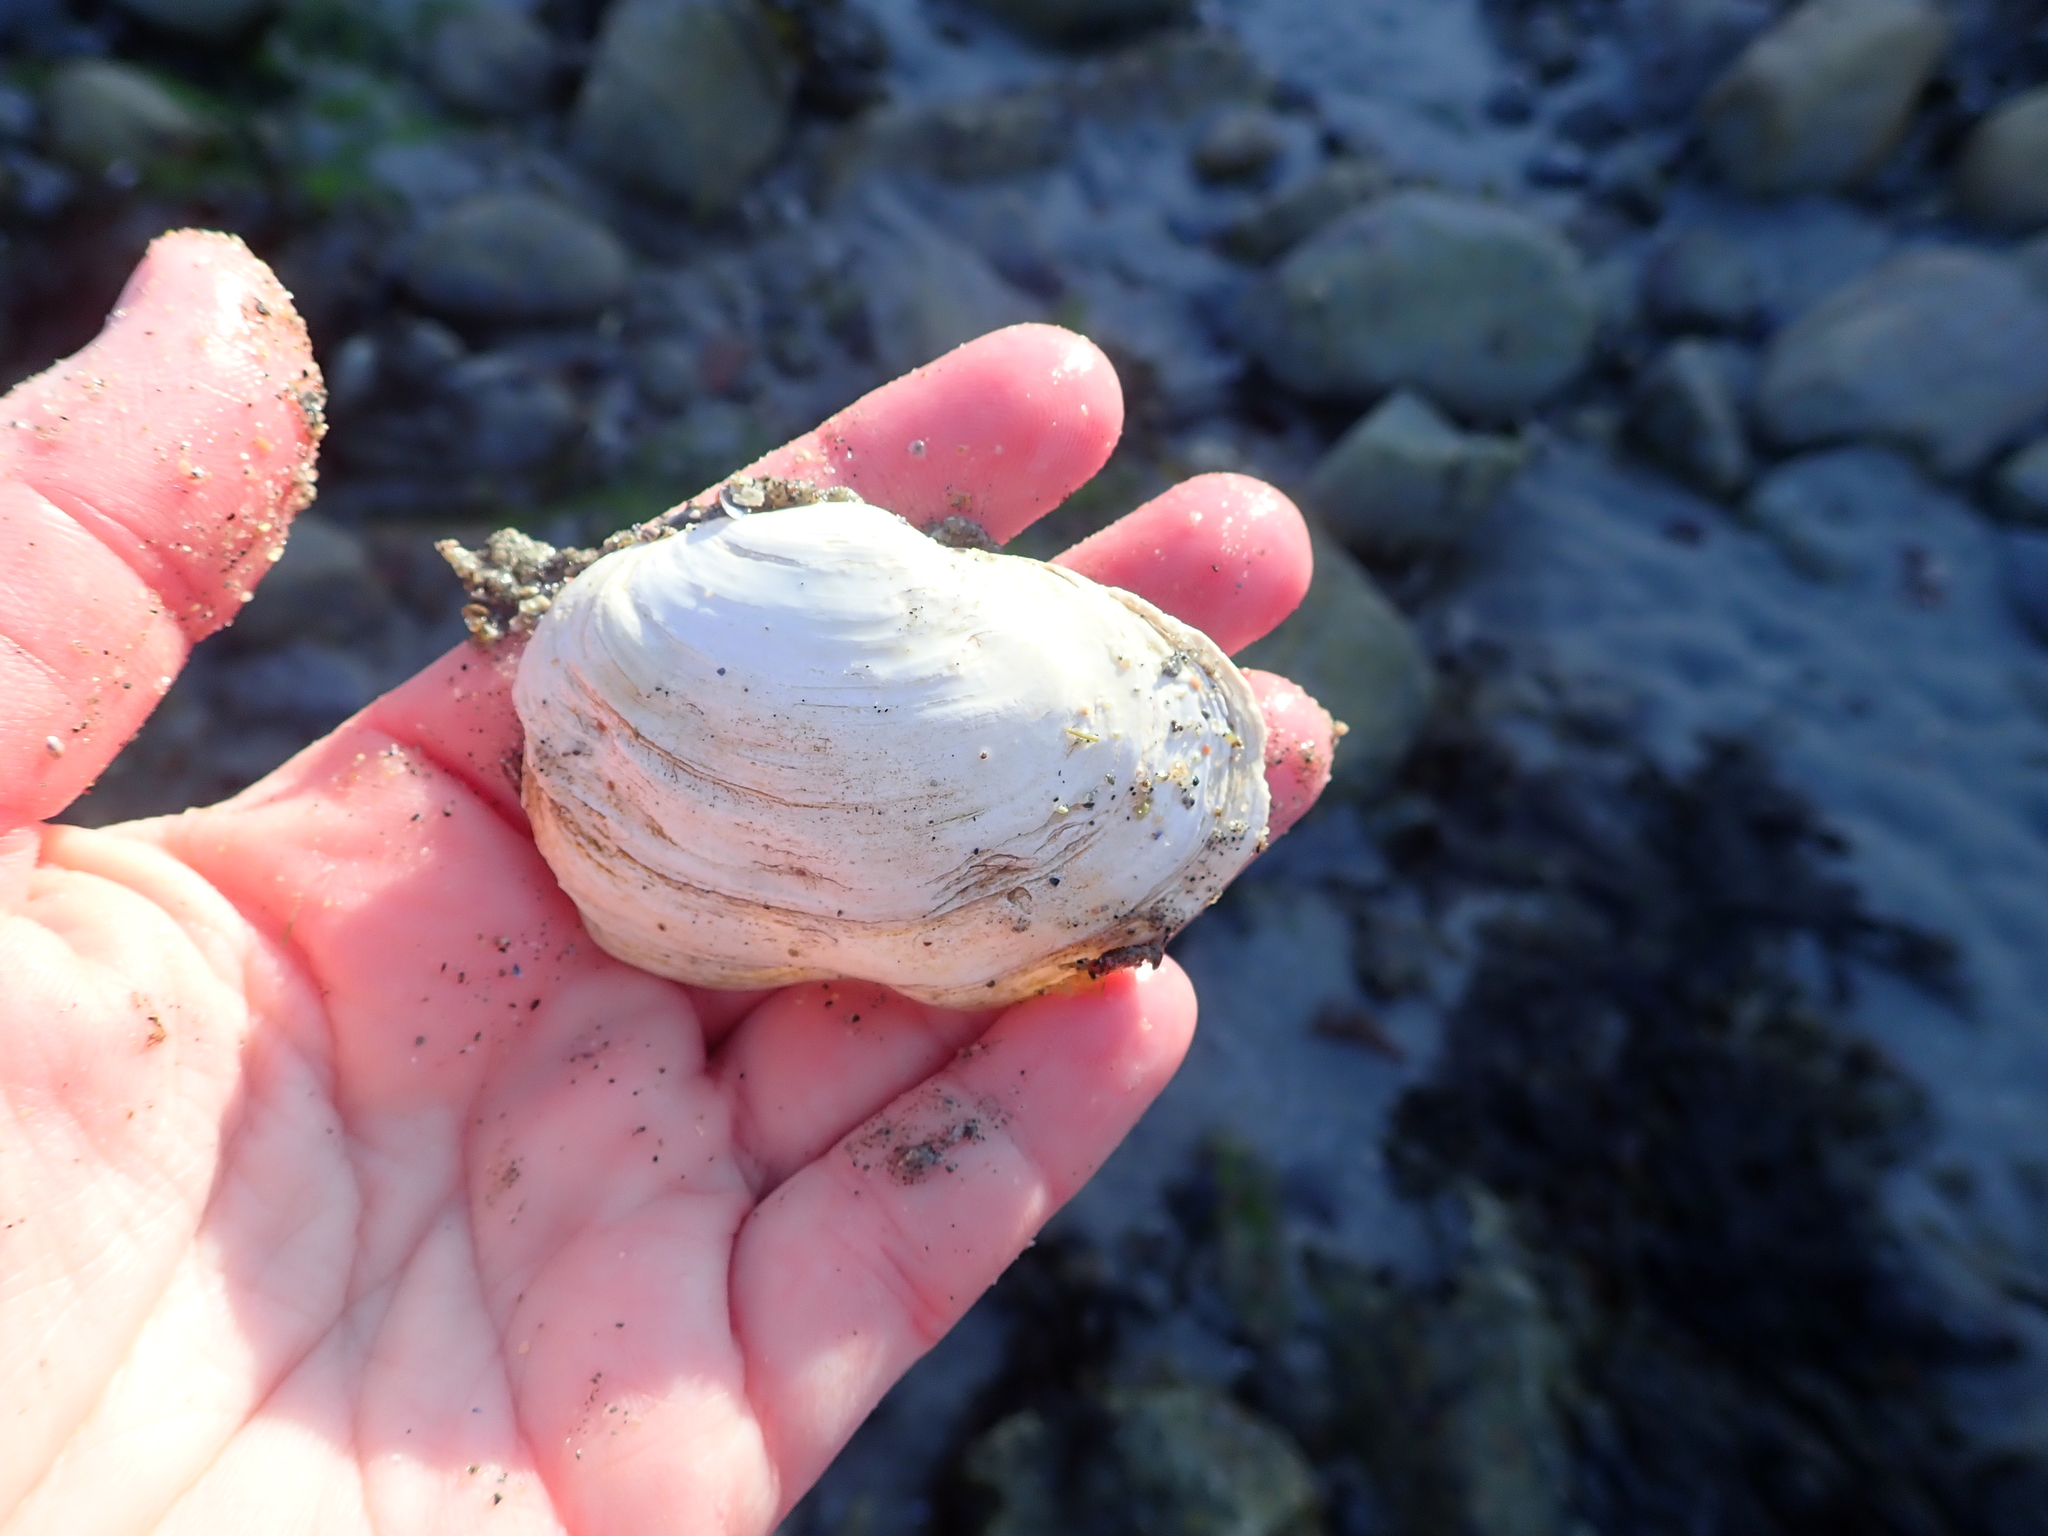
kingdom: Animalia
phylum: Mollusca
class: Bivalvia
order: Myida
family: Myidae
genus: Mya
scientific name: Mya arenaria
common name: Soft-shelled clam
